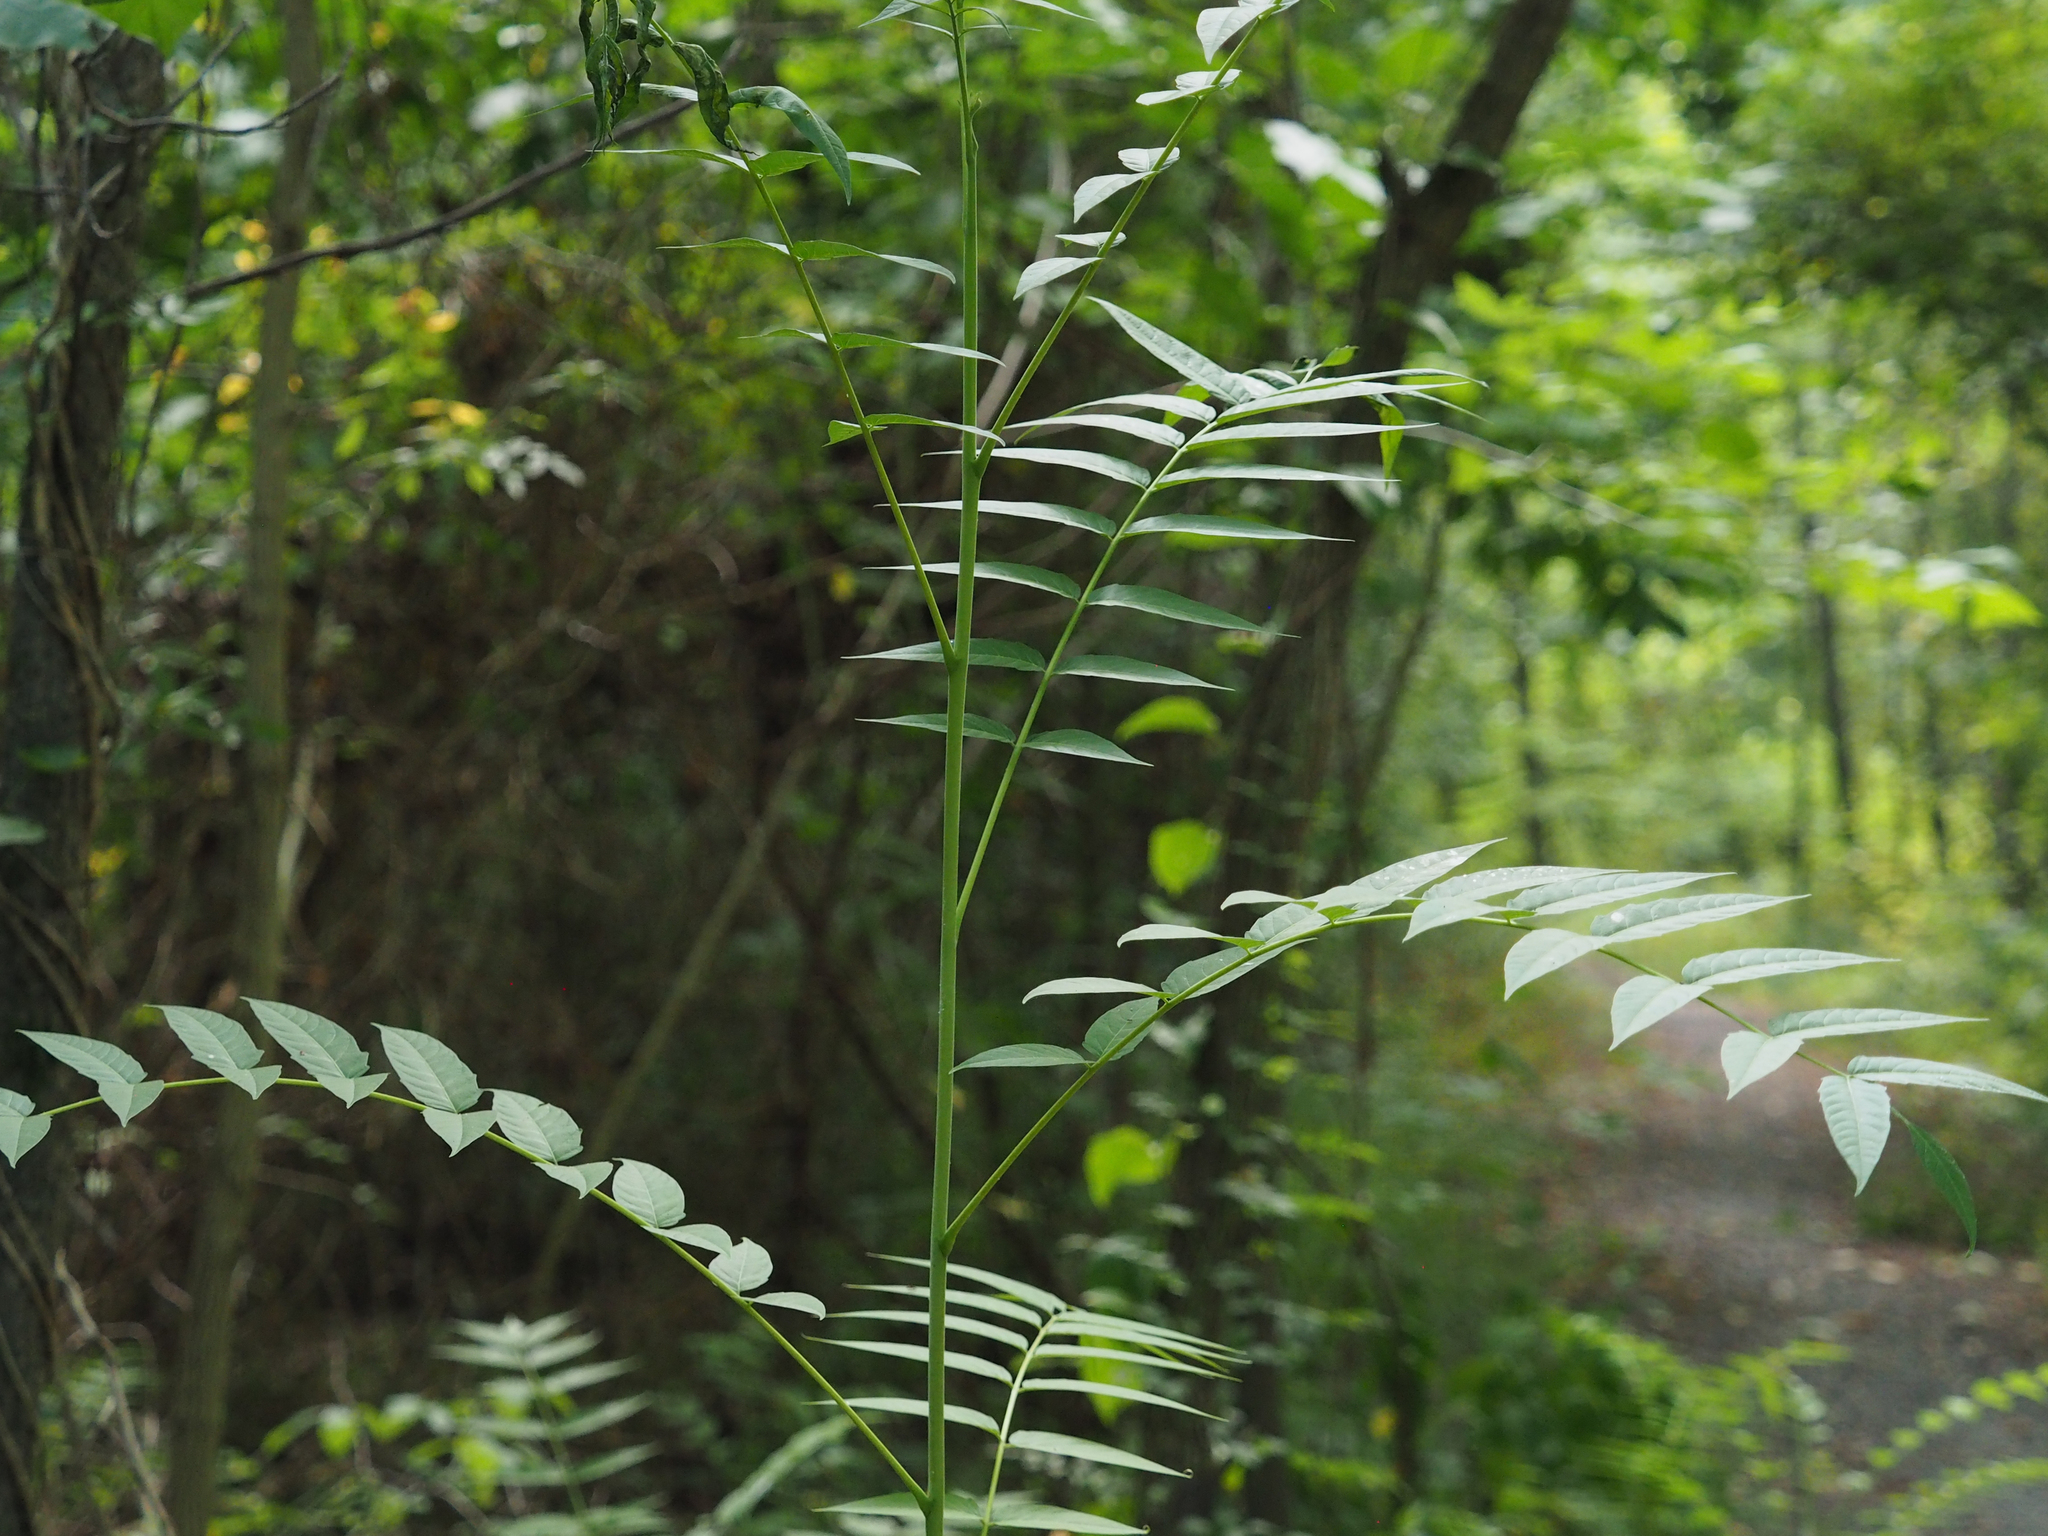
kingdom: Plantae
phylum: Tracheophyta
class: Magnoliopsida
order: Sapindales
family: Simaroubaceae
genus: Ailanthus
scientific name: Ailanthus altissima
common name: Tree-of-heaven
